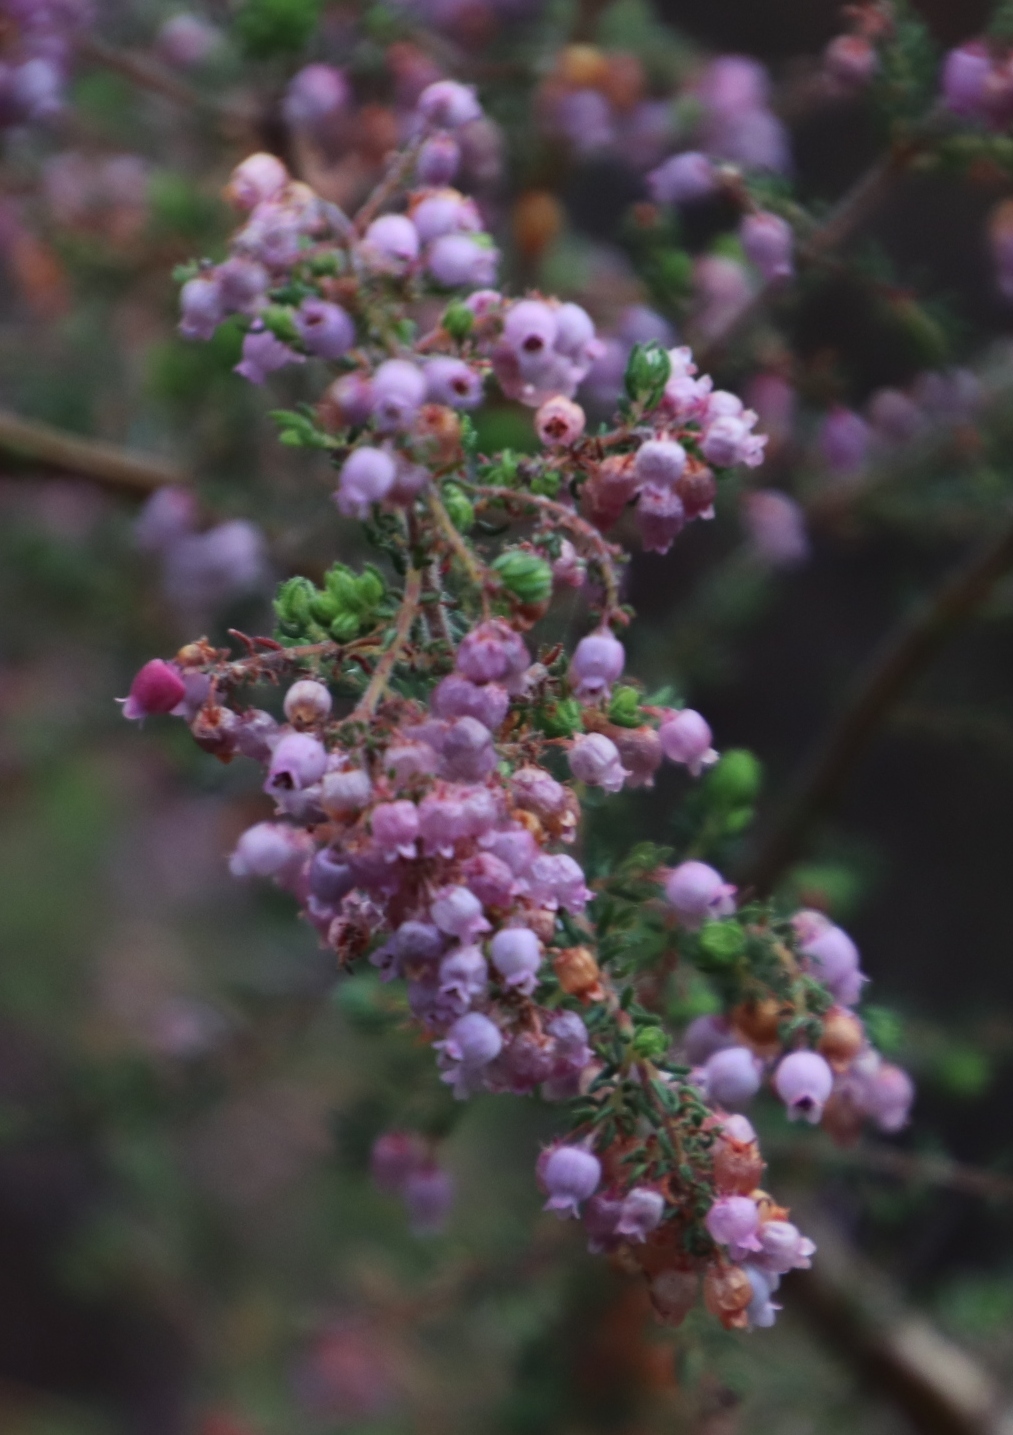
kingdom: Plantae
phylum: Tracheophyta
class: Magnoliopsida
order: Ericales
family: Ericaceae
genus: Erica
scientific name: Erica bergiana
